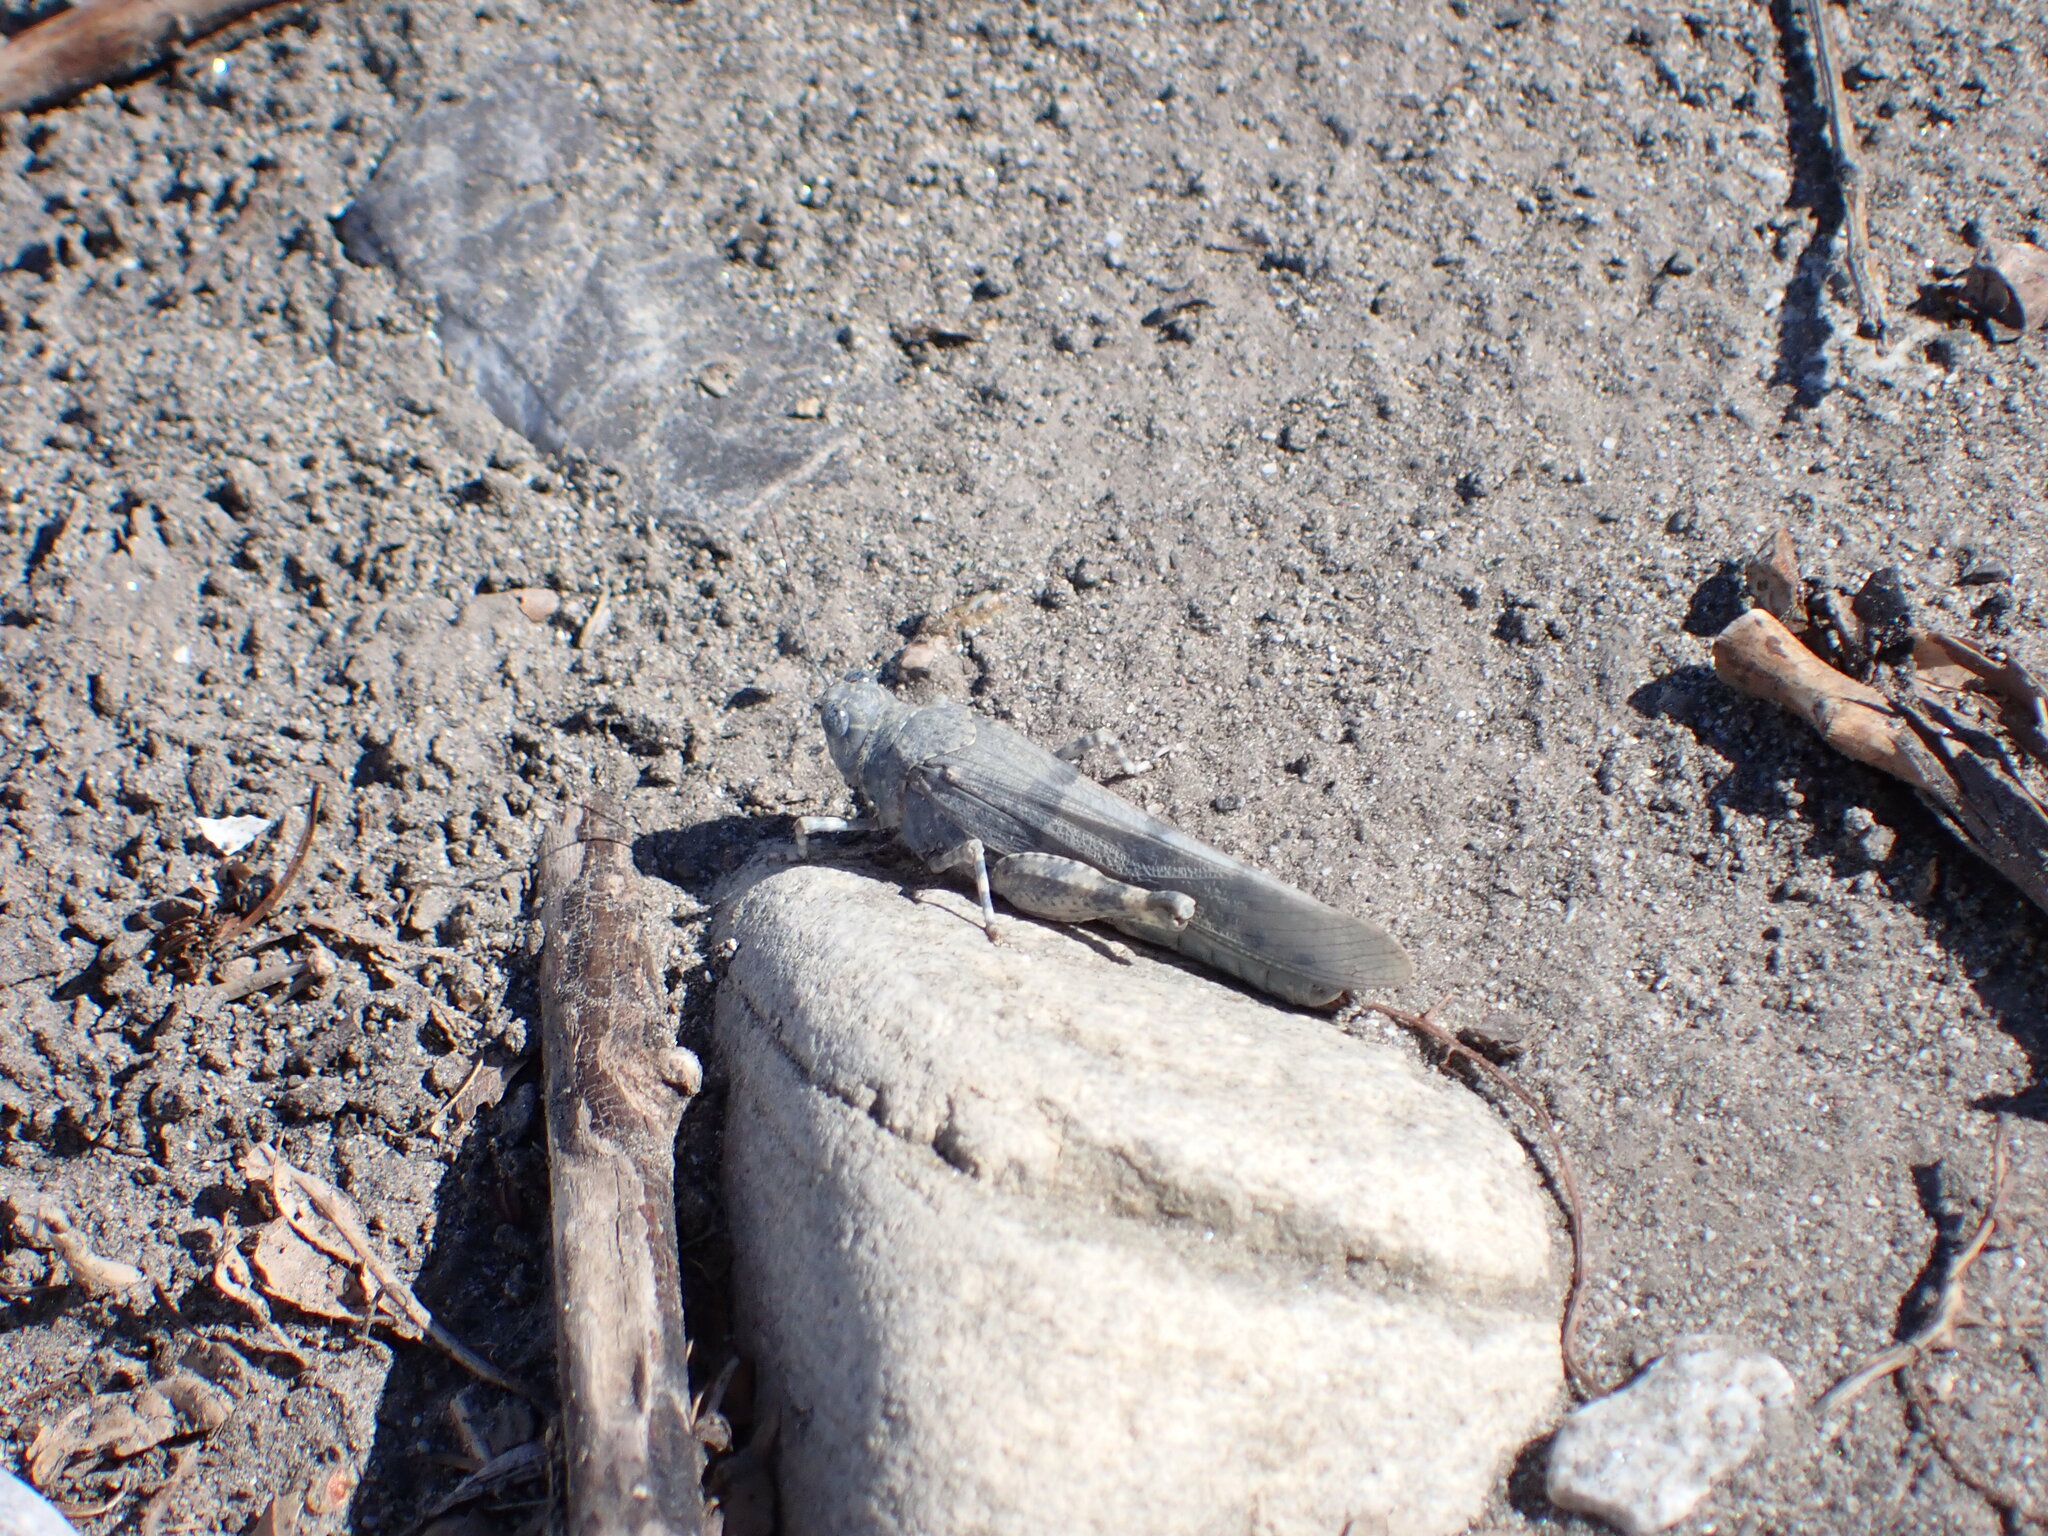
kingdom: Animalia
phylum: Arthropoda
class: Insecta
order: Orthoptera
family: Acrididae
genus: Sphingonotus
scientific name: Sphingonotus caerulans
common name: Blue-winged locust
